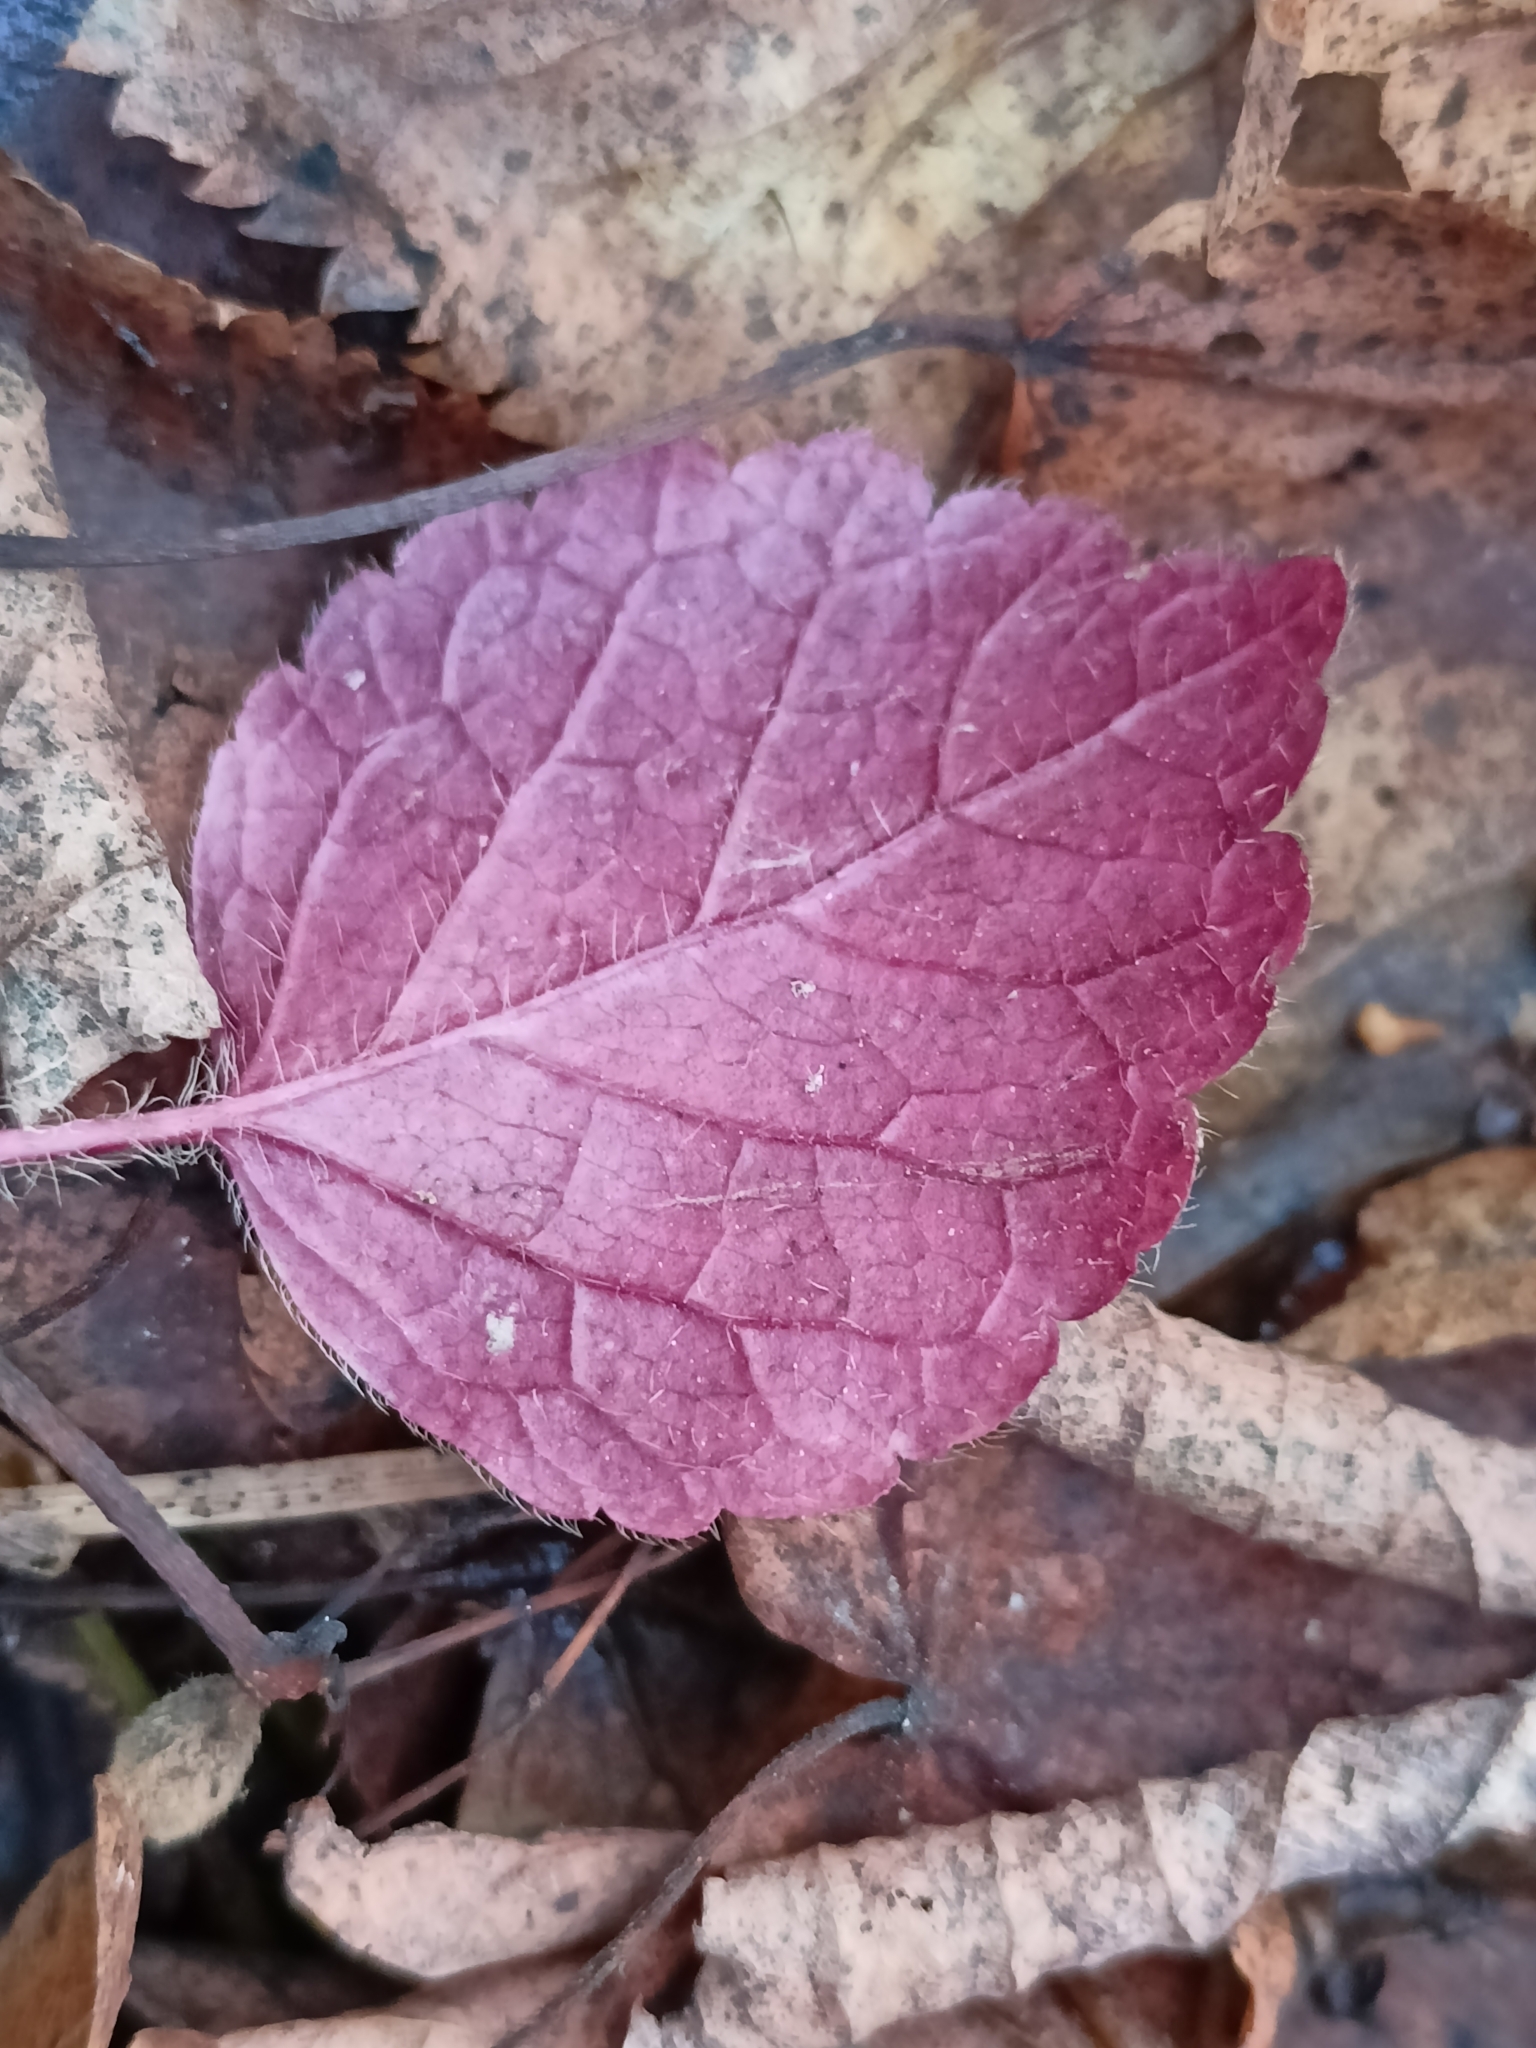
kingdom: Plantae
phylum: Tracheophyta
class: Magnoliopsida
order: Lamiales
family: Lamiaceae
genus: Lamium
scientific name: Lamium galeobdolon
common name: Yellow archangel
